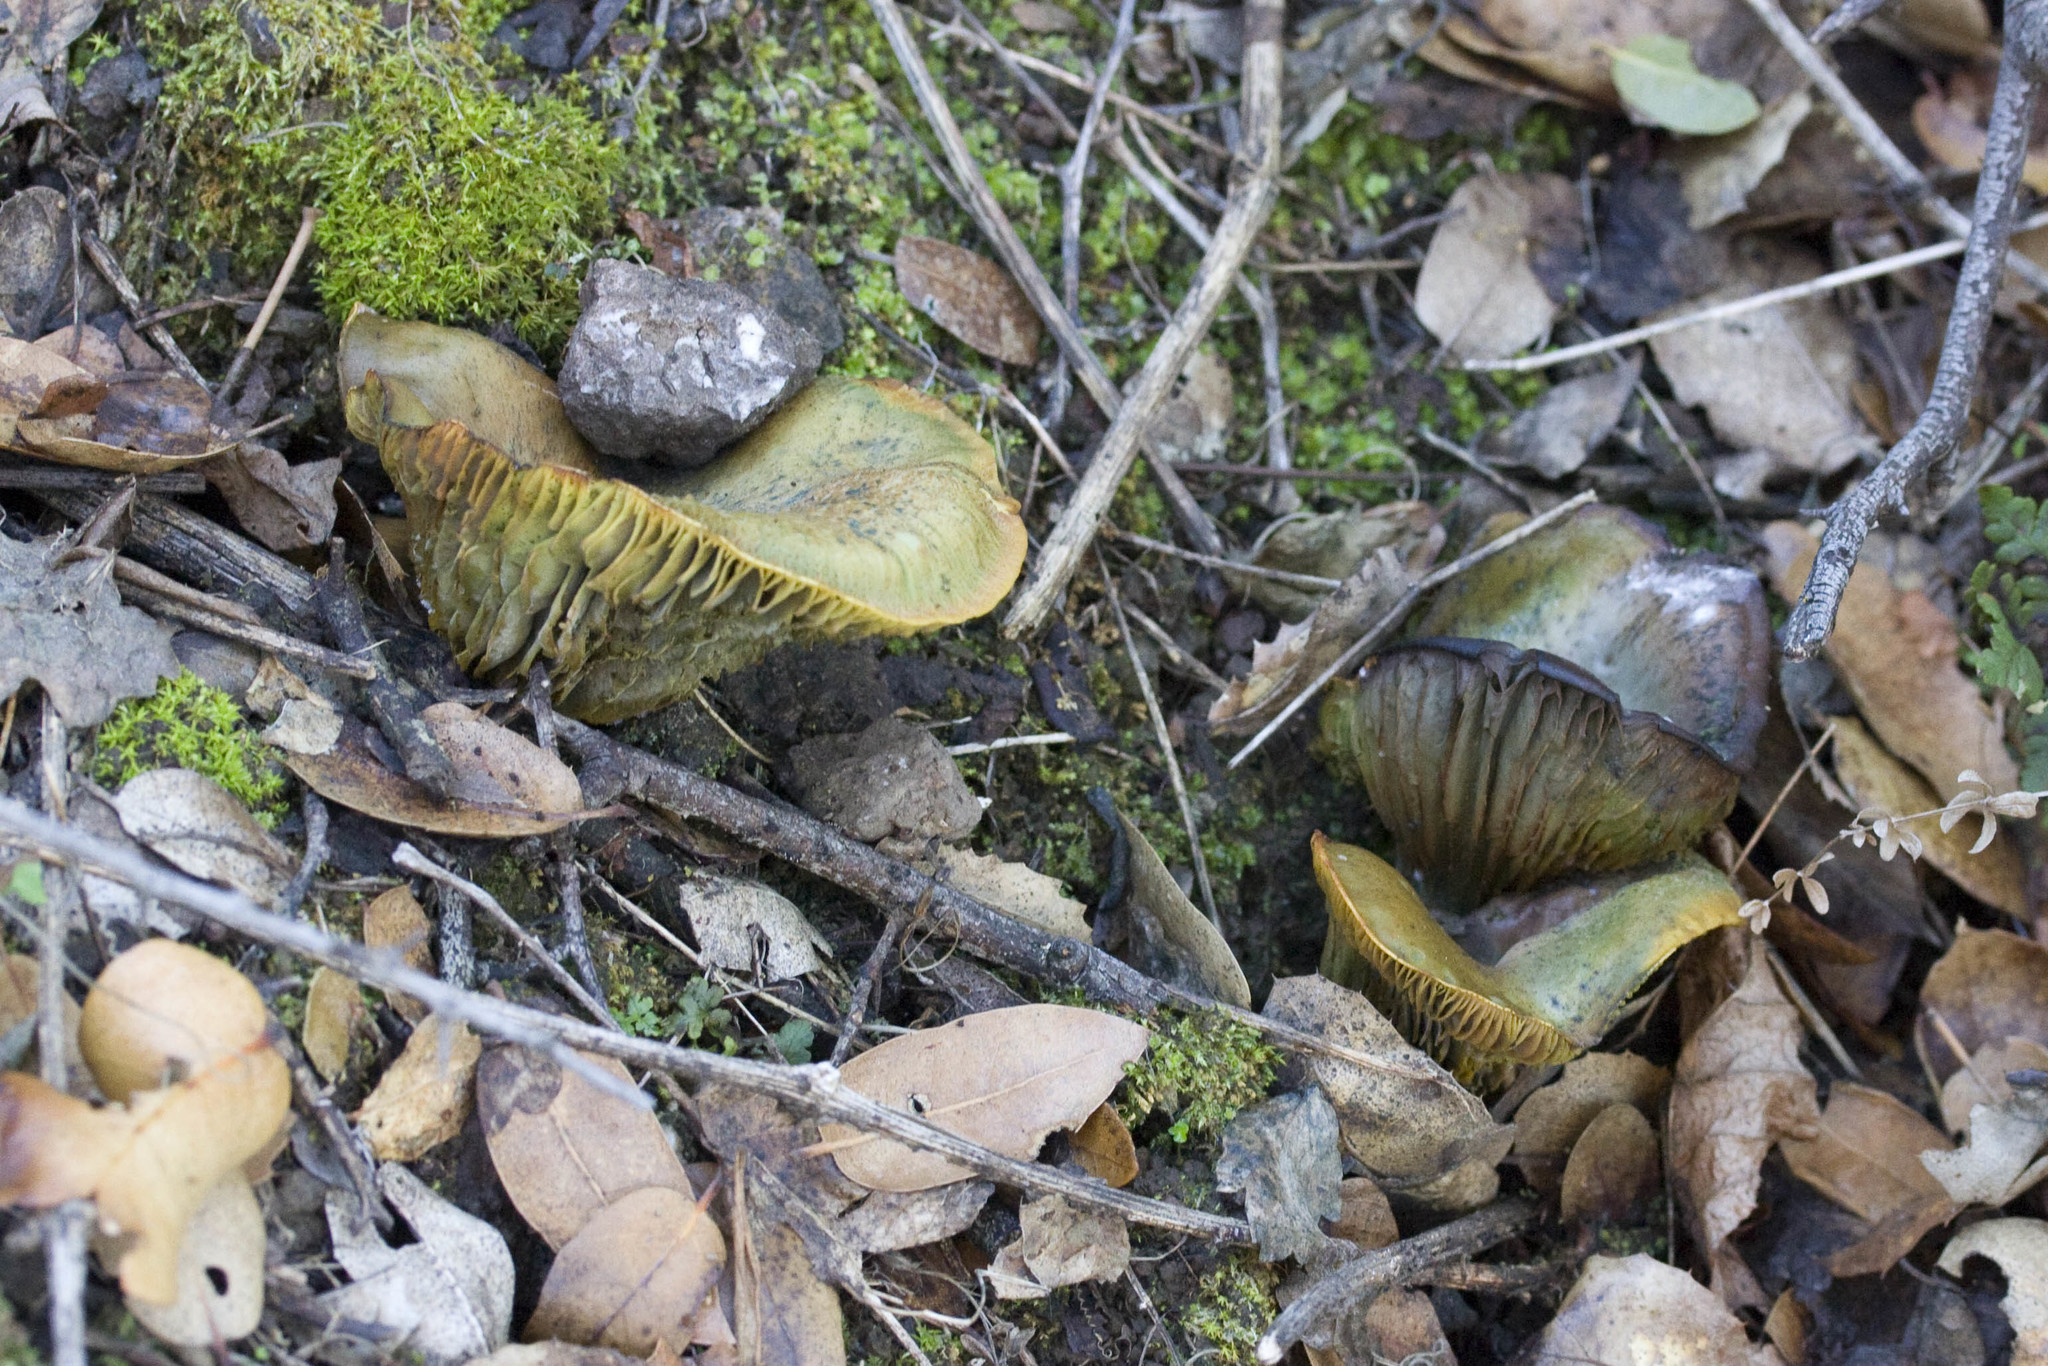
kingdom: Fungi
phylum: Basidiomycota
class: Agaricomycetes
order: Agaricales
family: Omphalotaceae
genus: Omphalotus
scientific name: Omphalotus olivascens
